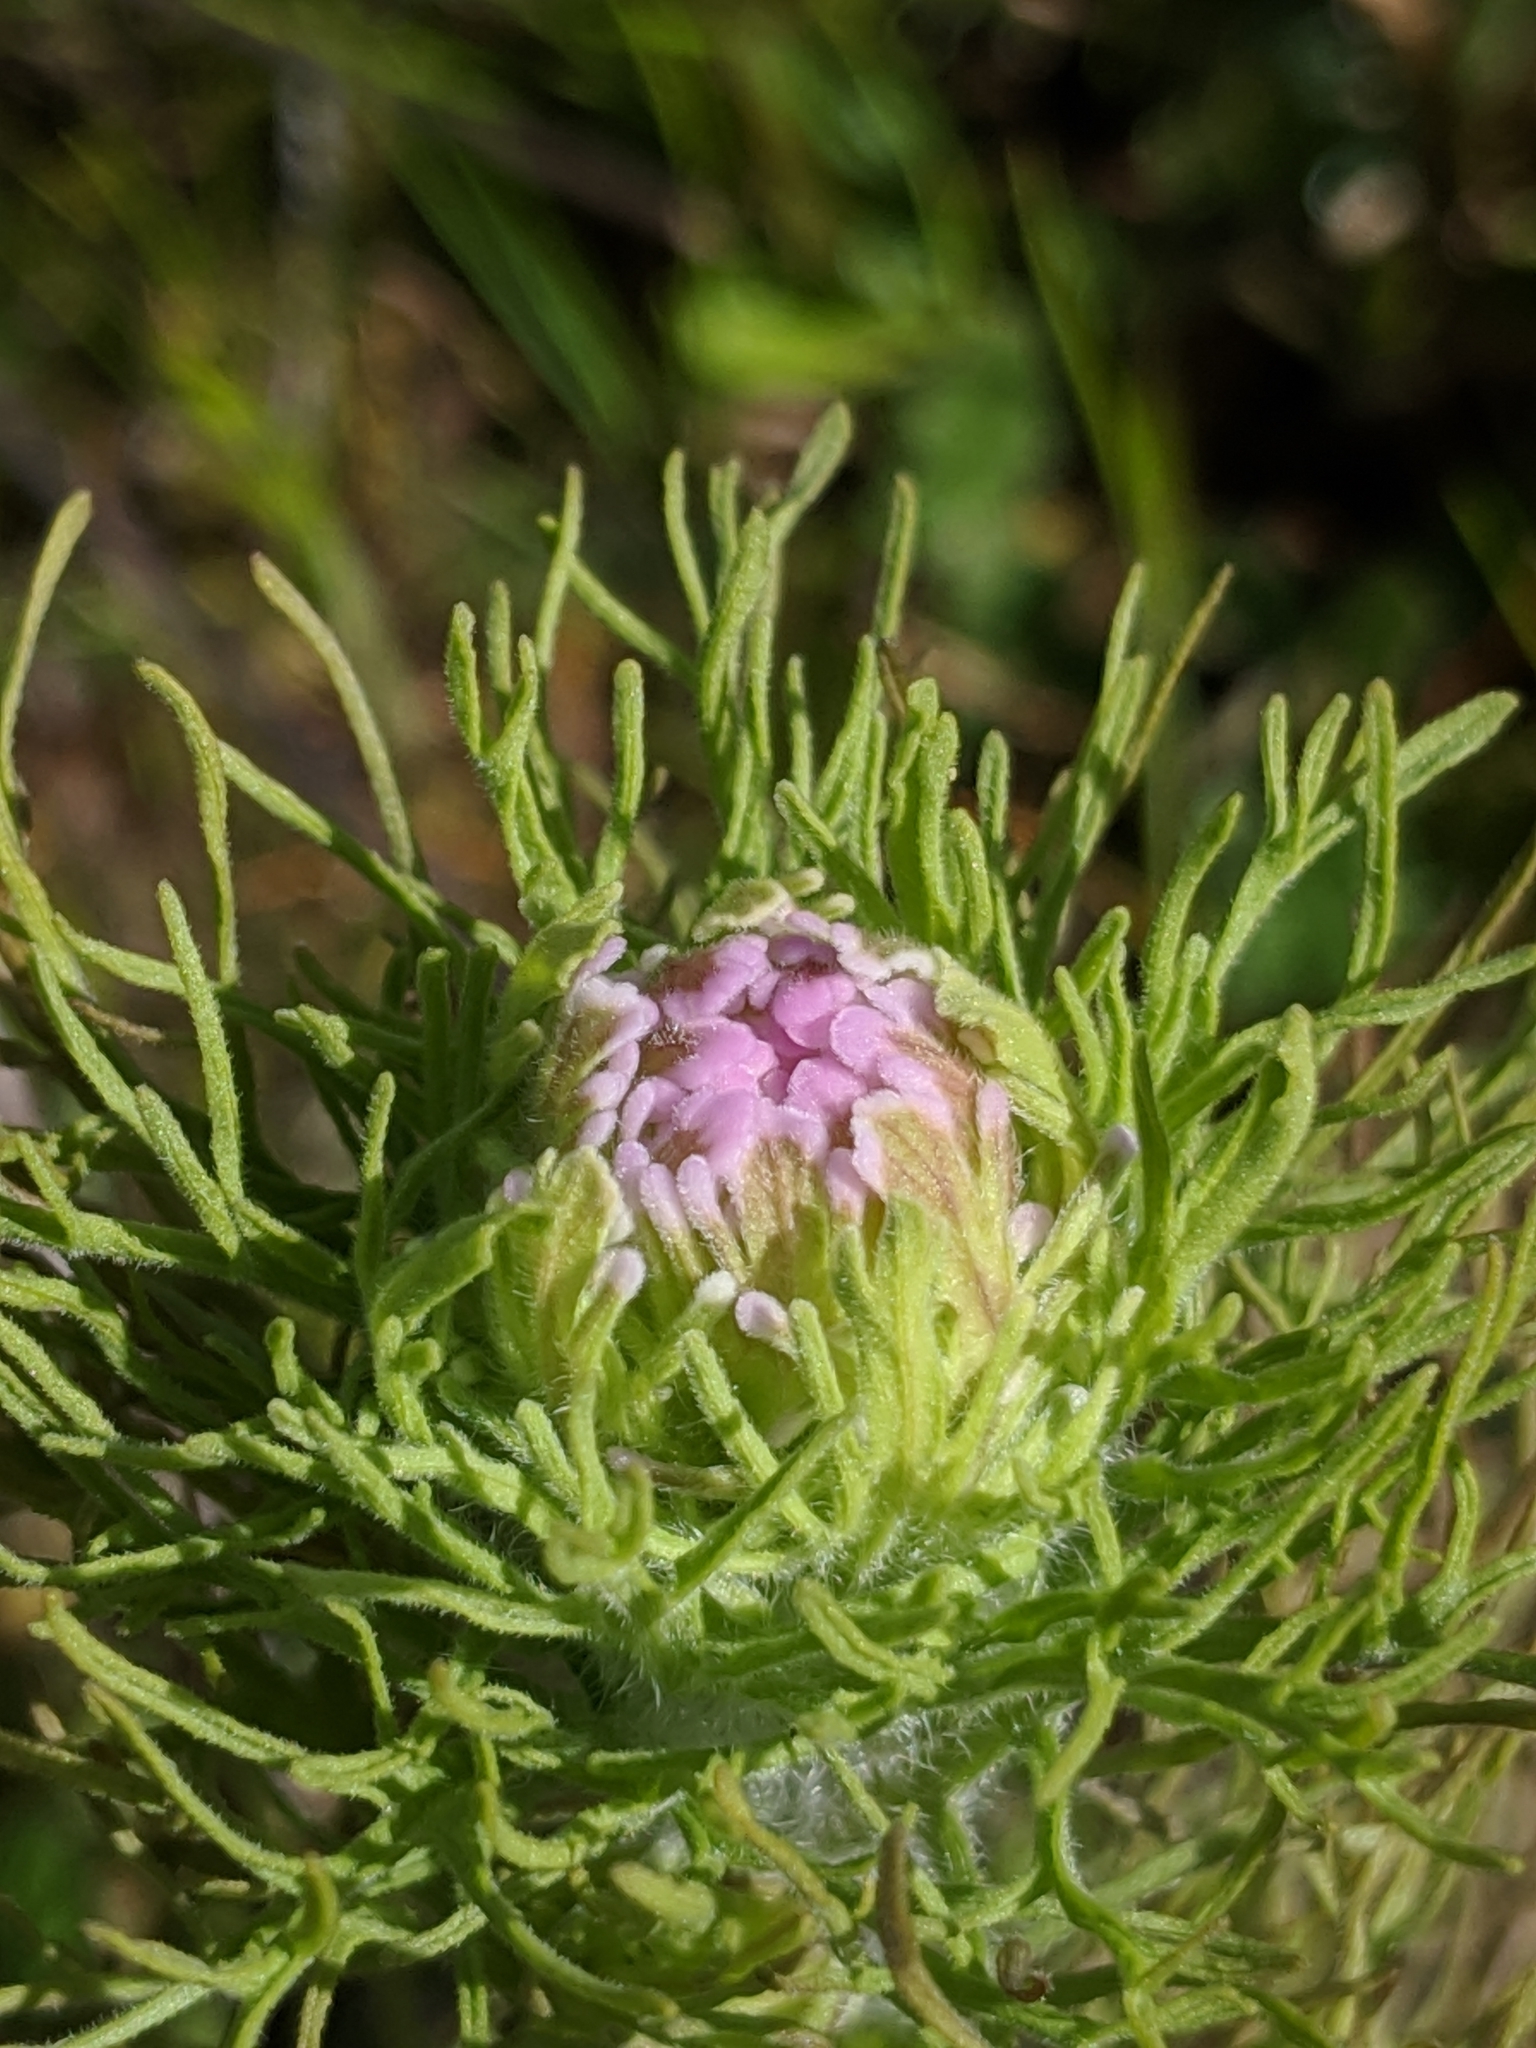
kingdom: Plantae
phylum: Tracheophyta
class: Magnoliopsida
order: Lamiales
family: Orobanchaceae
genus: Castilleja
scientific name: Castilleja exserta
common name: Purple owl-clover
